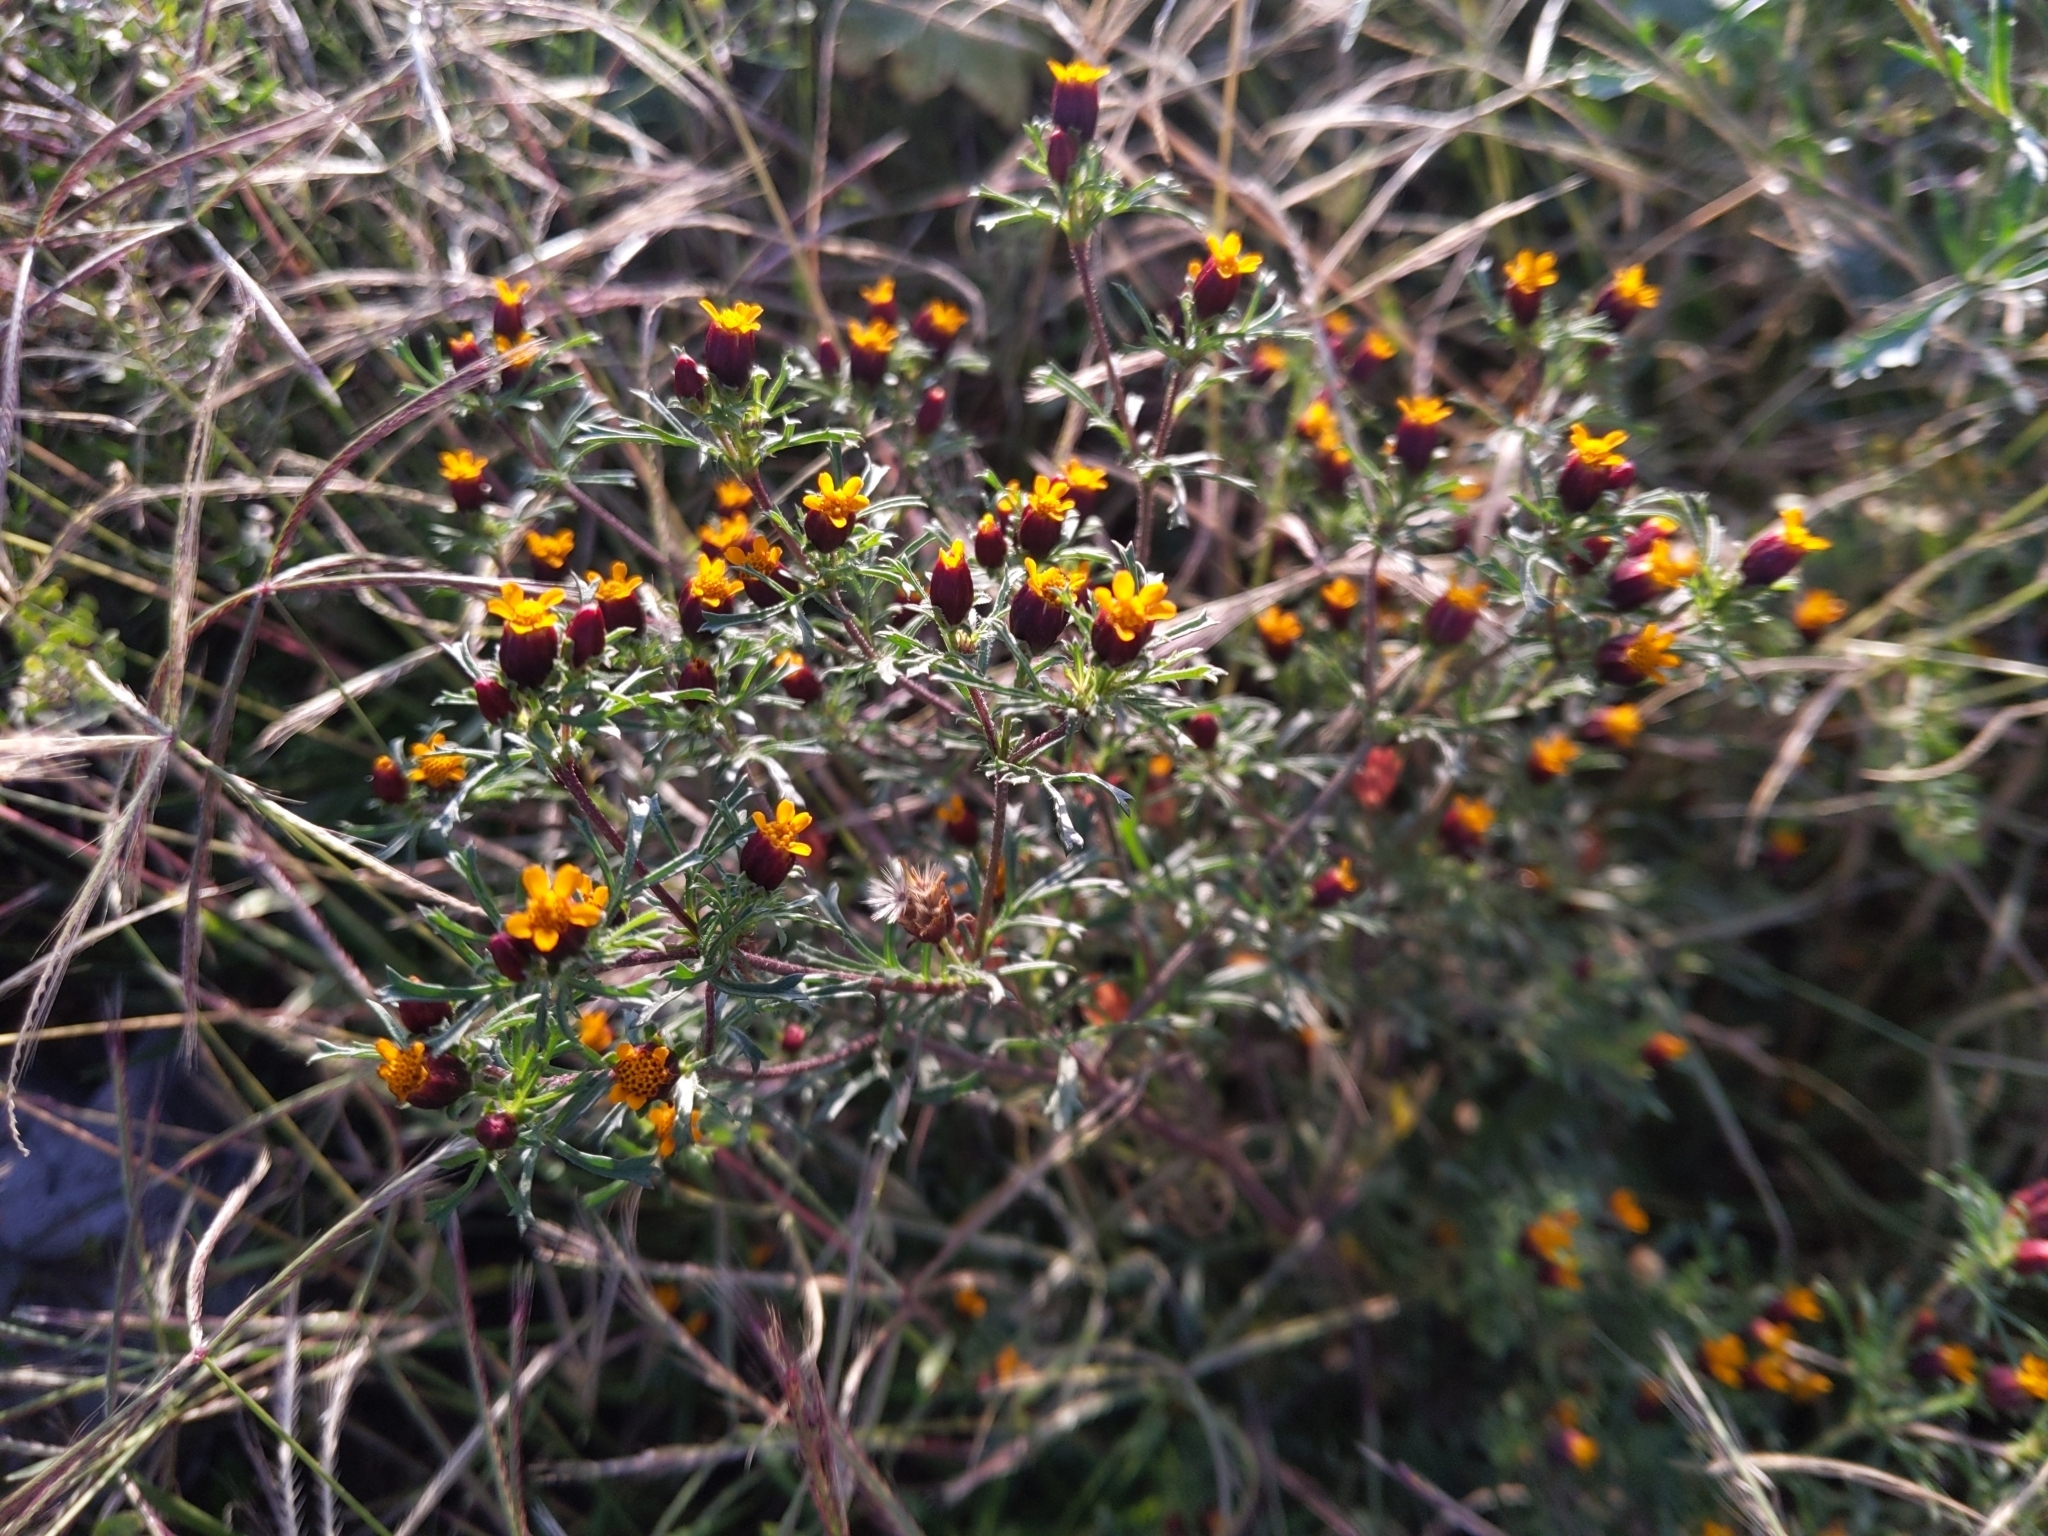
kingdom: Plantae
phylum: Tracheophyta
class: Magnoliopsida
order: Asterales
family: Asteraceae
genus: Dyssodia
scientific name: Dyssodia papposa
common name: Dogweed
